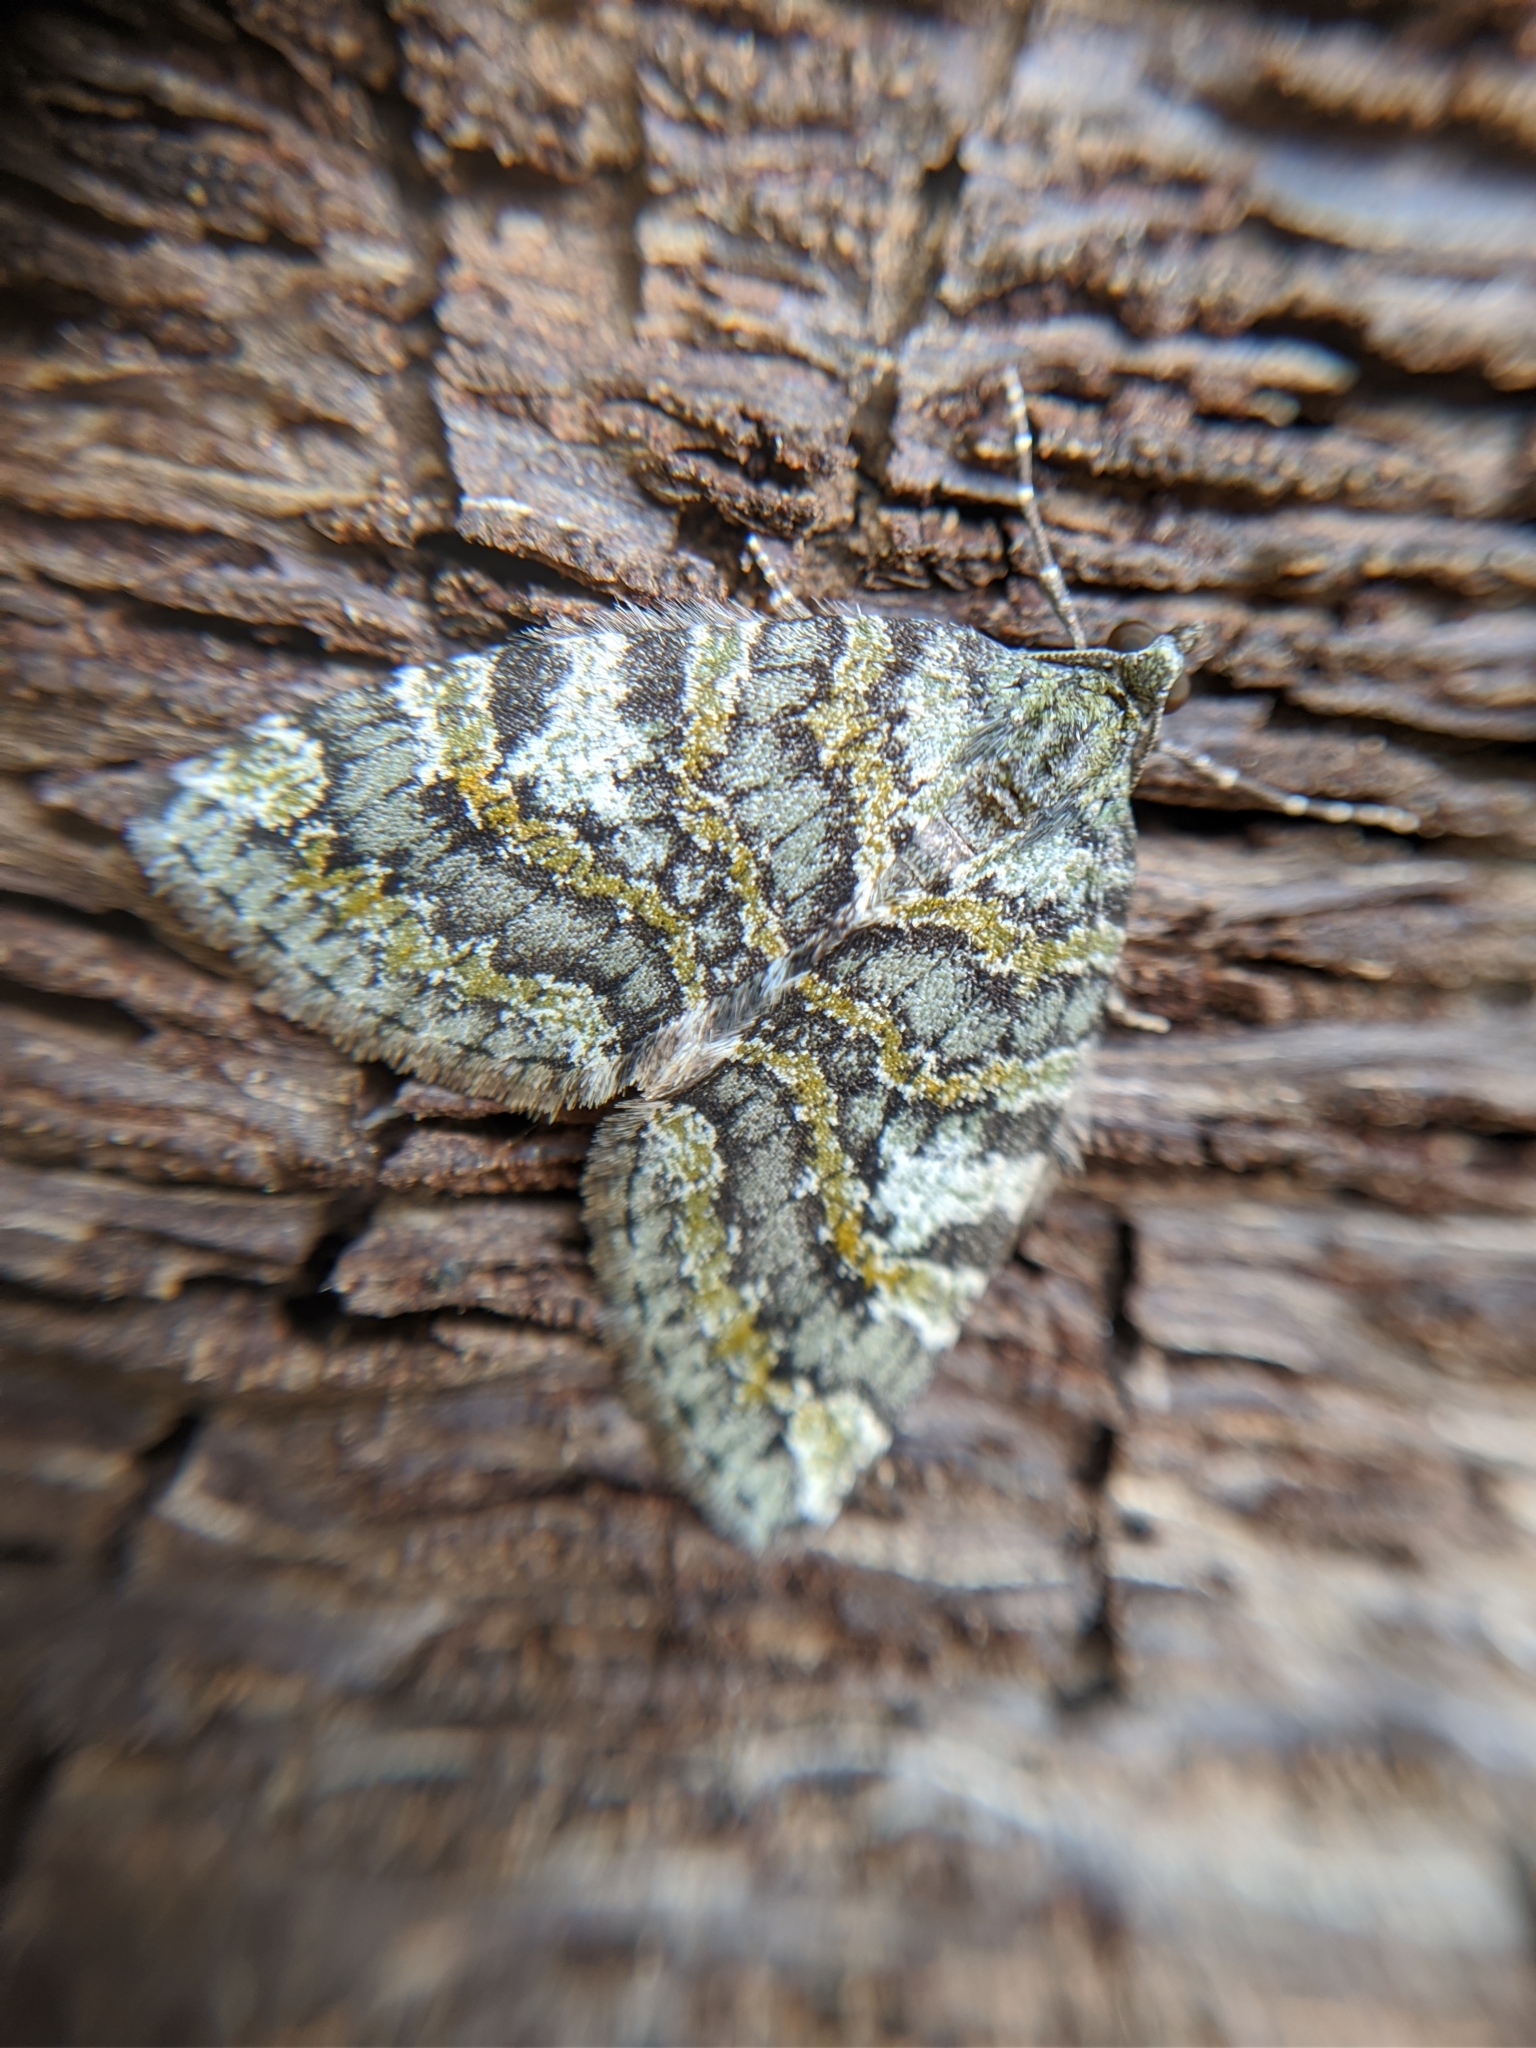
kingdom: Animalia
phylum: Arthropoda
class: Insecta
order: Lepidoptera
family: Geometridae
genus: Hydriomena
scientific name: Hydriomena nubilofasciata
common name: Oak winter highflier moth
